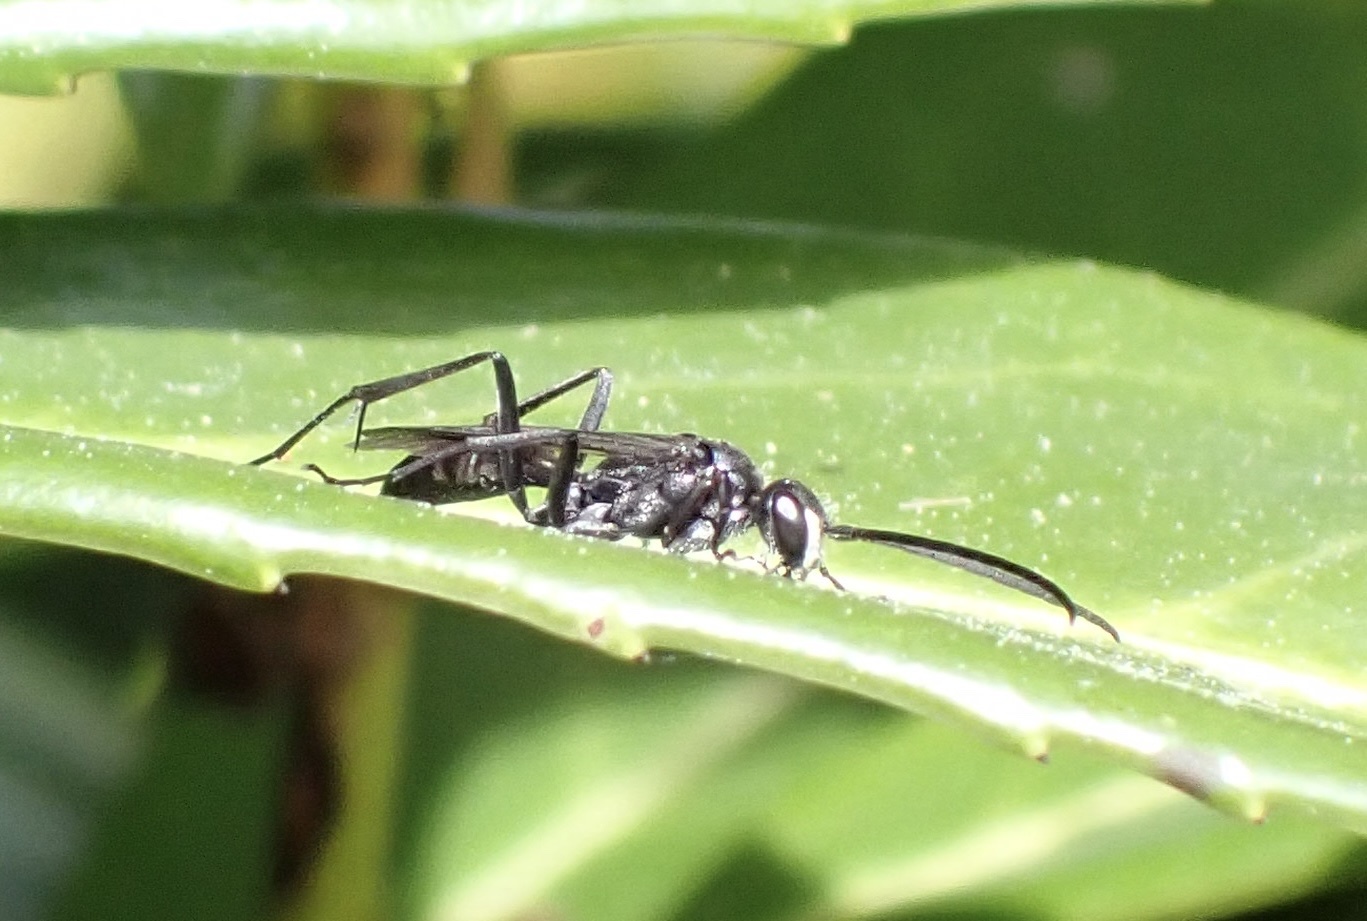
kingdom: Animalia
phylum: Arthropoda
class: Insecta
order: Hymenoptera
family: Pompilidae
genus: Auplopus
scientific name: Auplopus carbonarius
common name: Spider wasp
